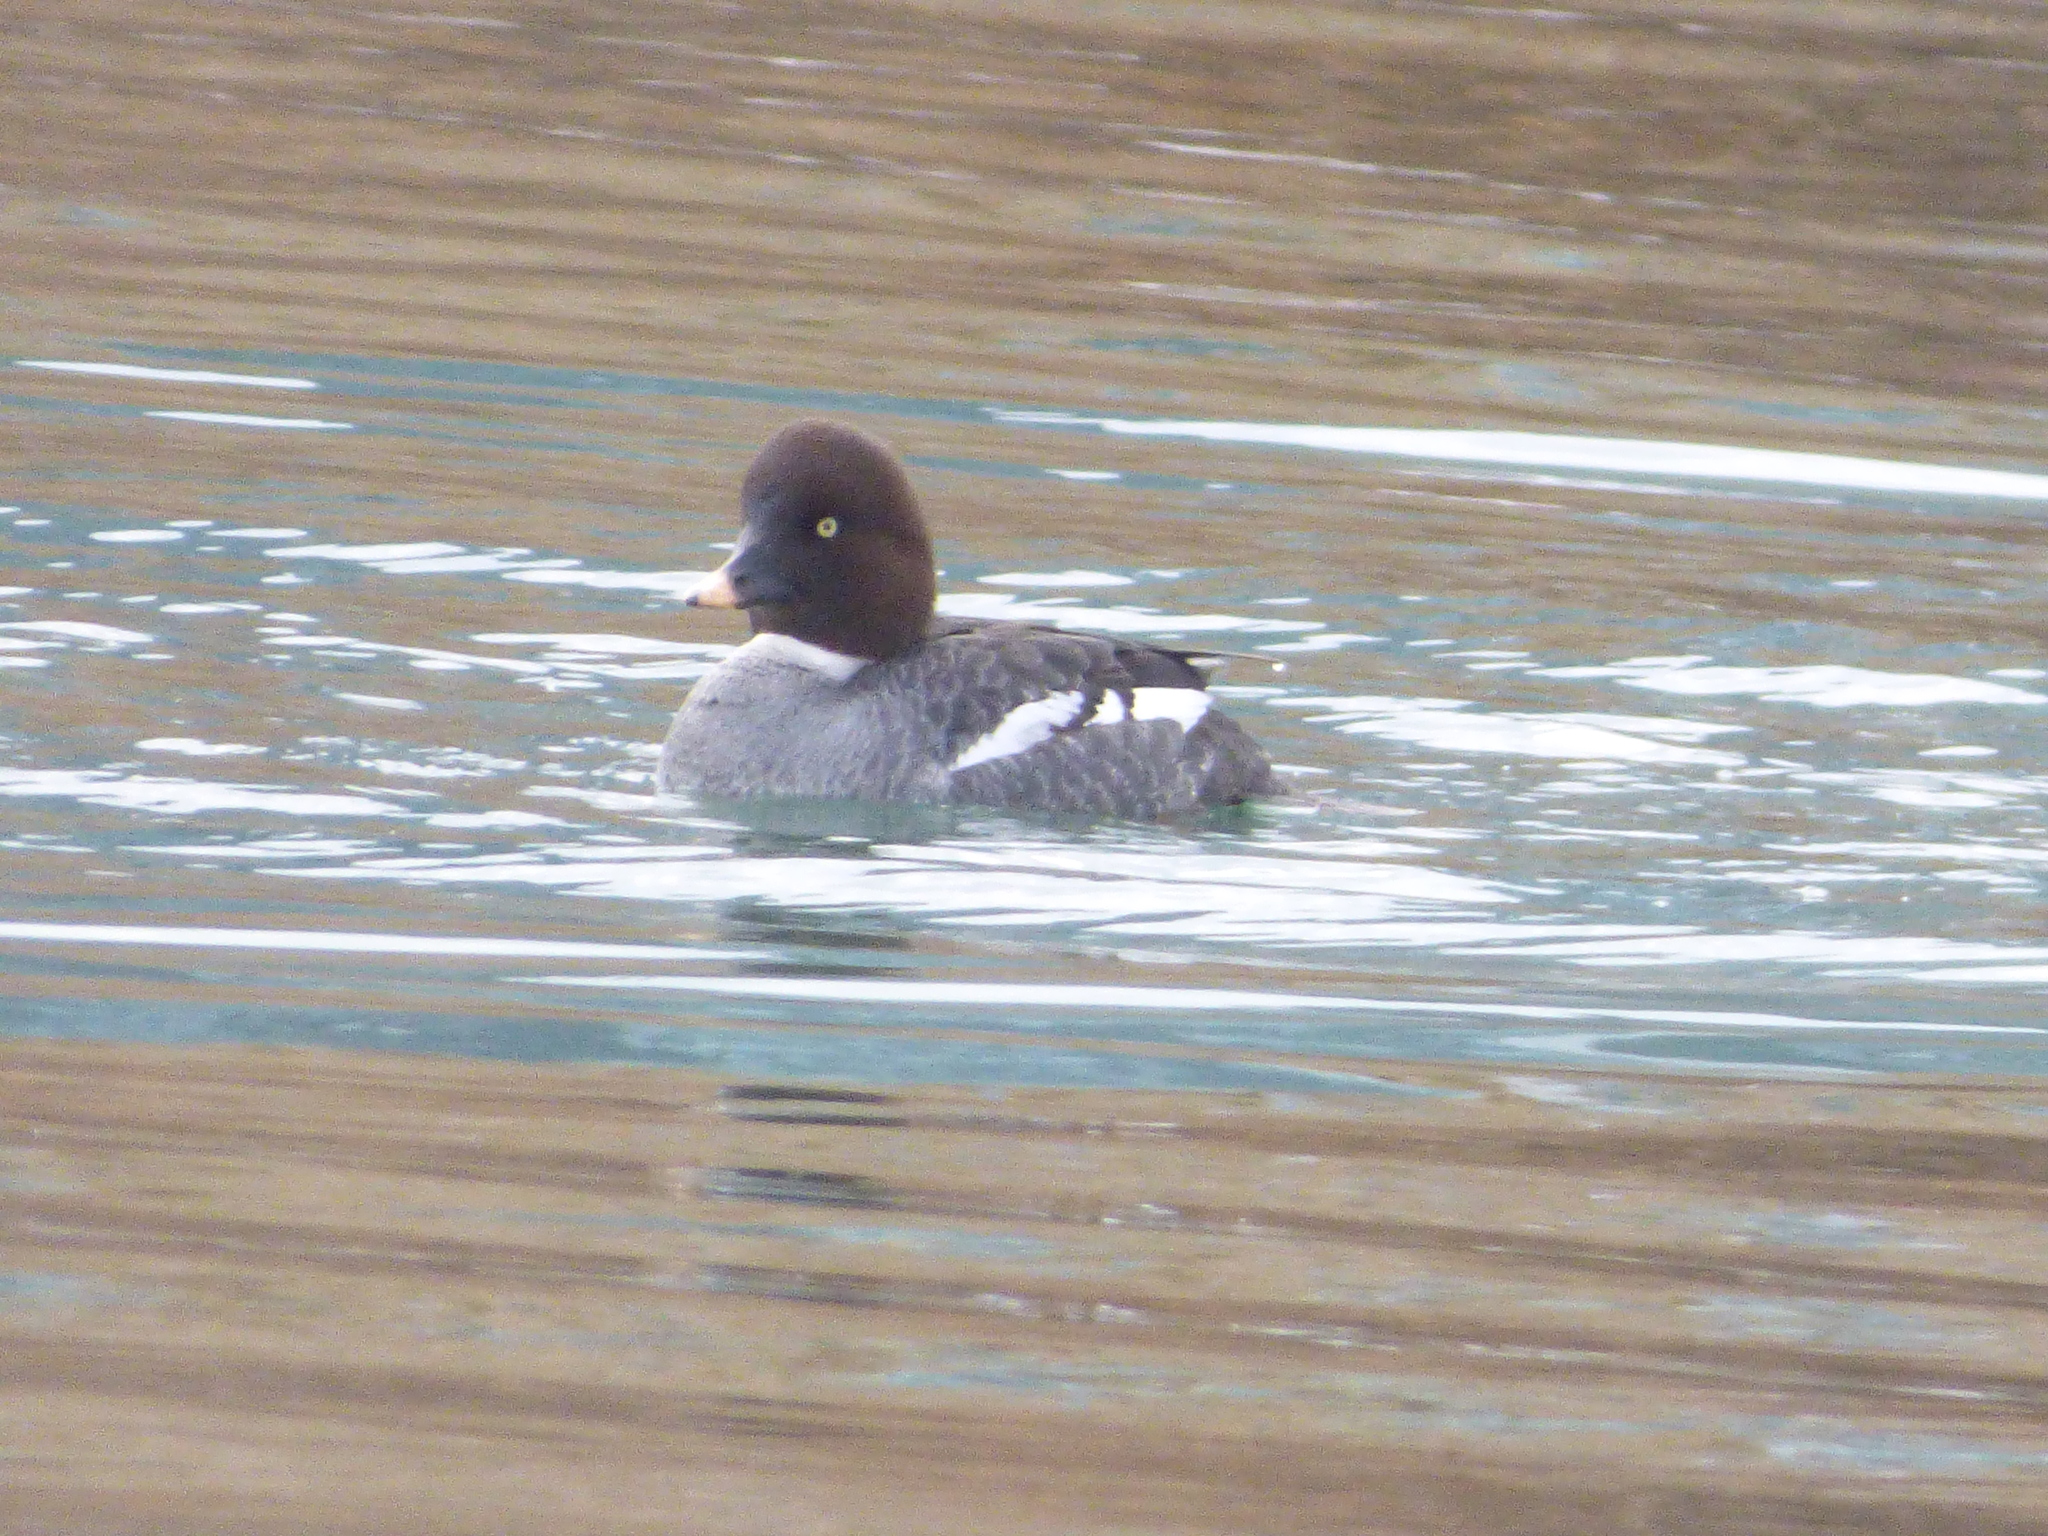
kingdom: Animalia
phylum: Chordata
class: Aves
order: Anseriformes
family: Anatidae
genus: Bucephala
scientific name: Bucephala clangula
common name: Common goldeneye
